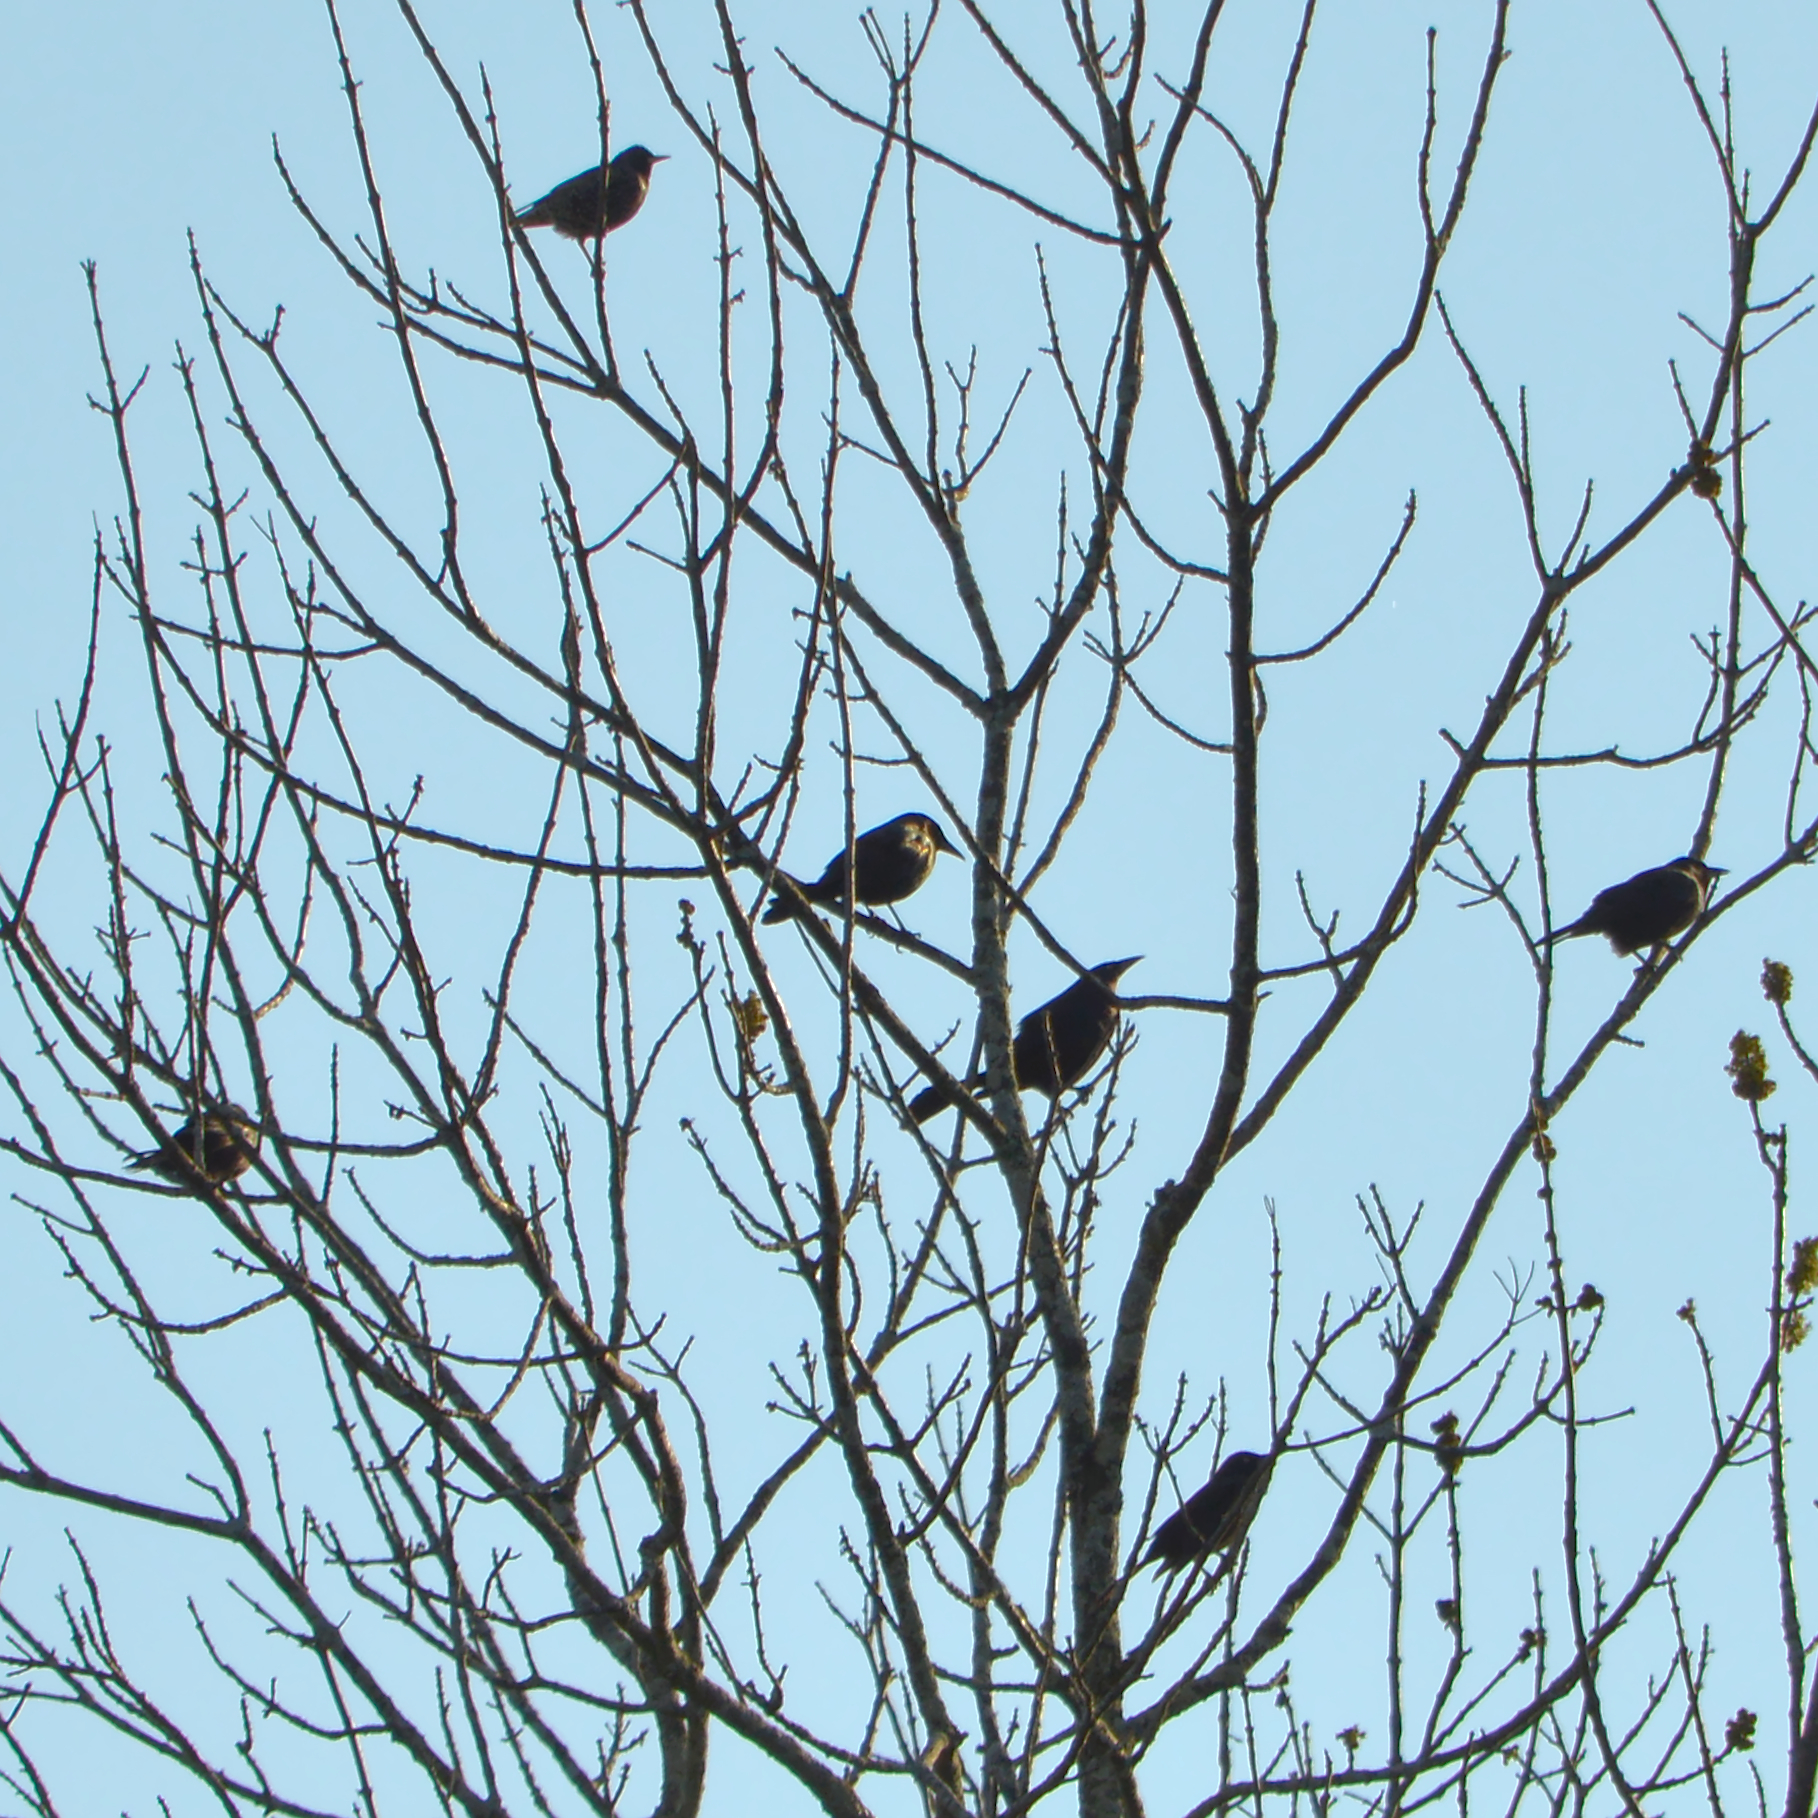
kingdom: Animalia
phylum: Chordata
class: Aves
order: Passeriformes
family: Icteridae
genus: Quiscalus
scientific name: Quiscalus quiscula
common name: Common grackle
